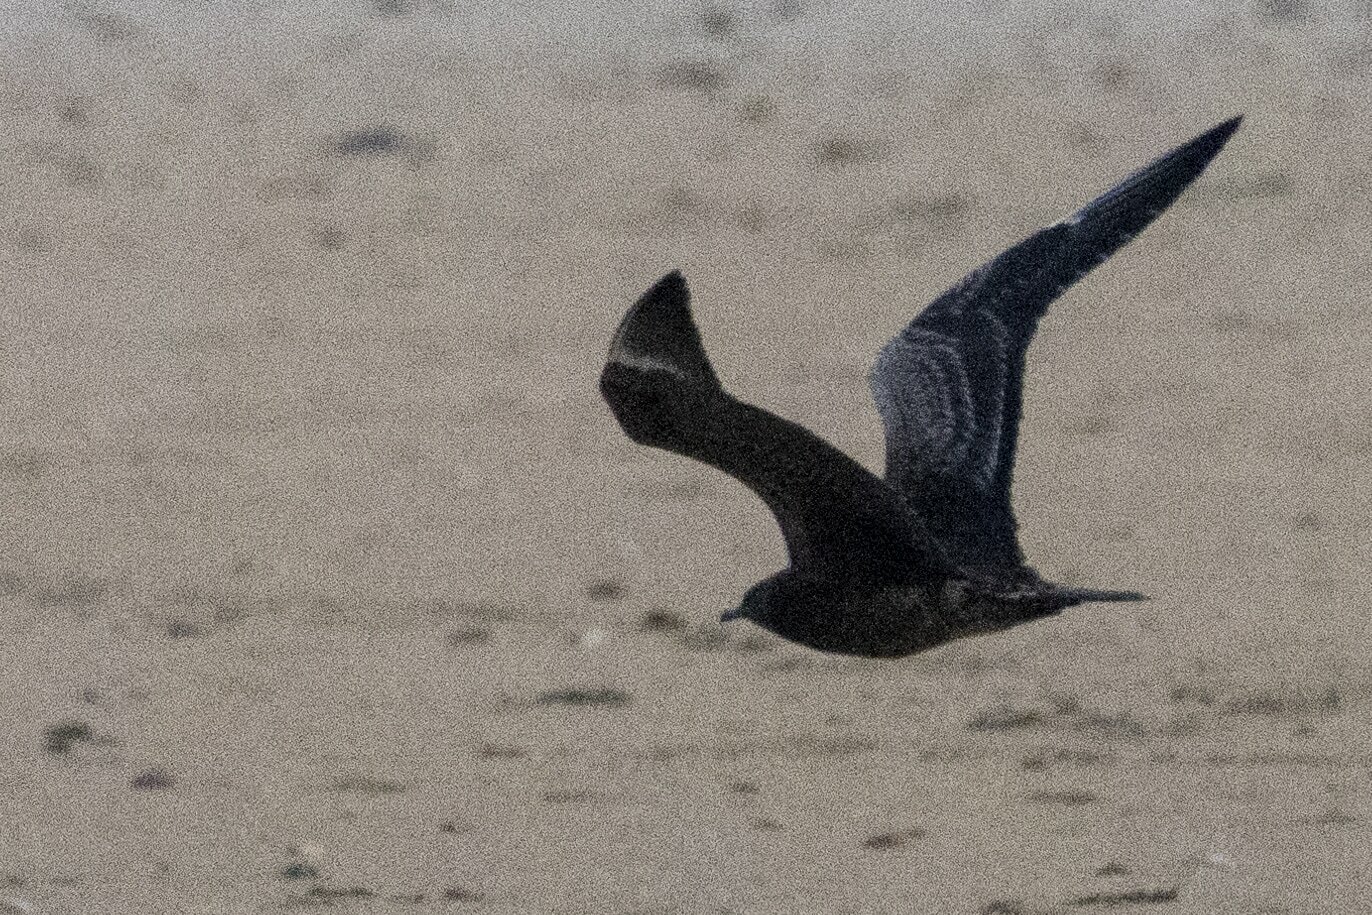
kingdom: Animalia
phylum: Chordata
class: Aves
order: Charadriiformes
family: Stercorariidae
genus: Stercorarius
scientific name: Stercorarius parasiticus
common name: Parasitic jaeger
